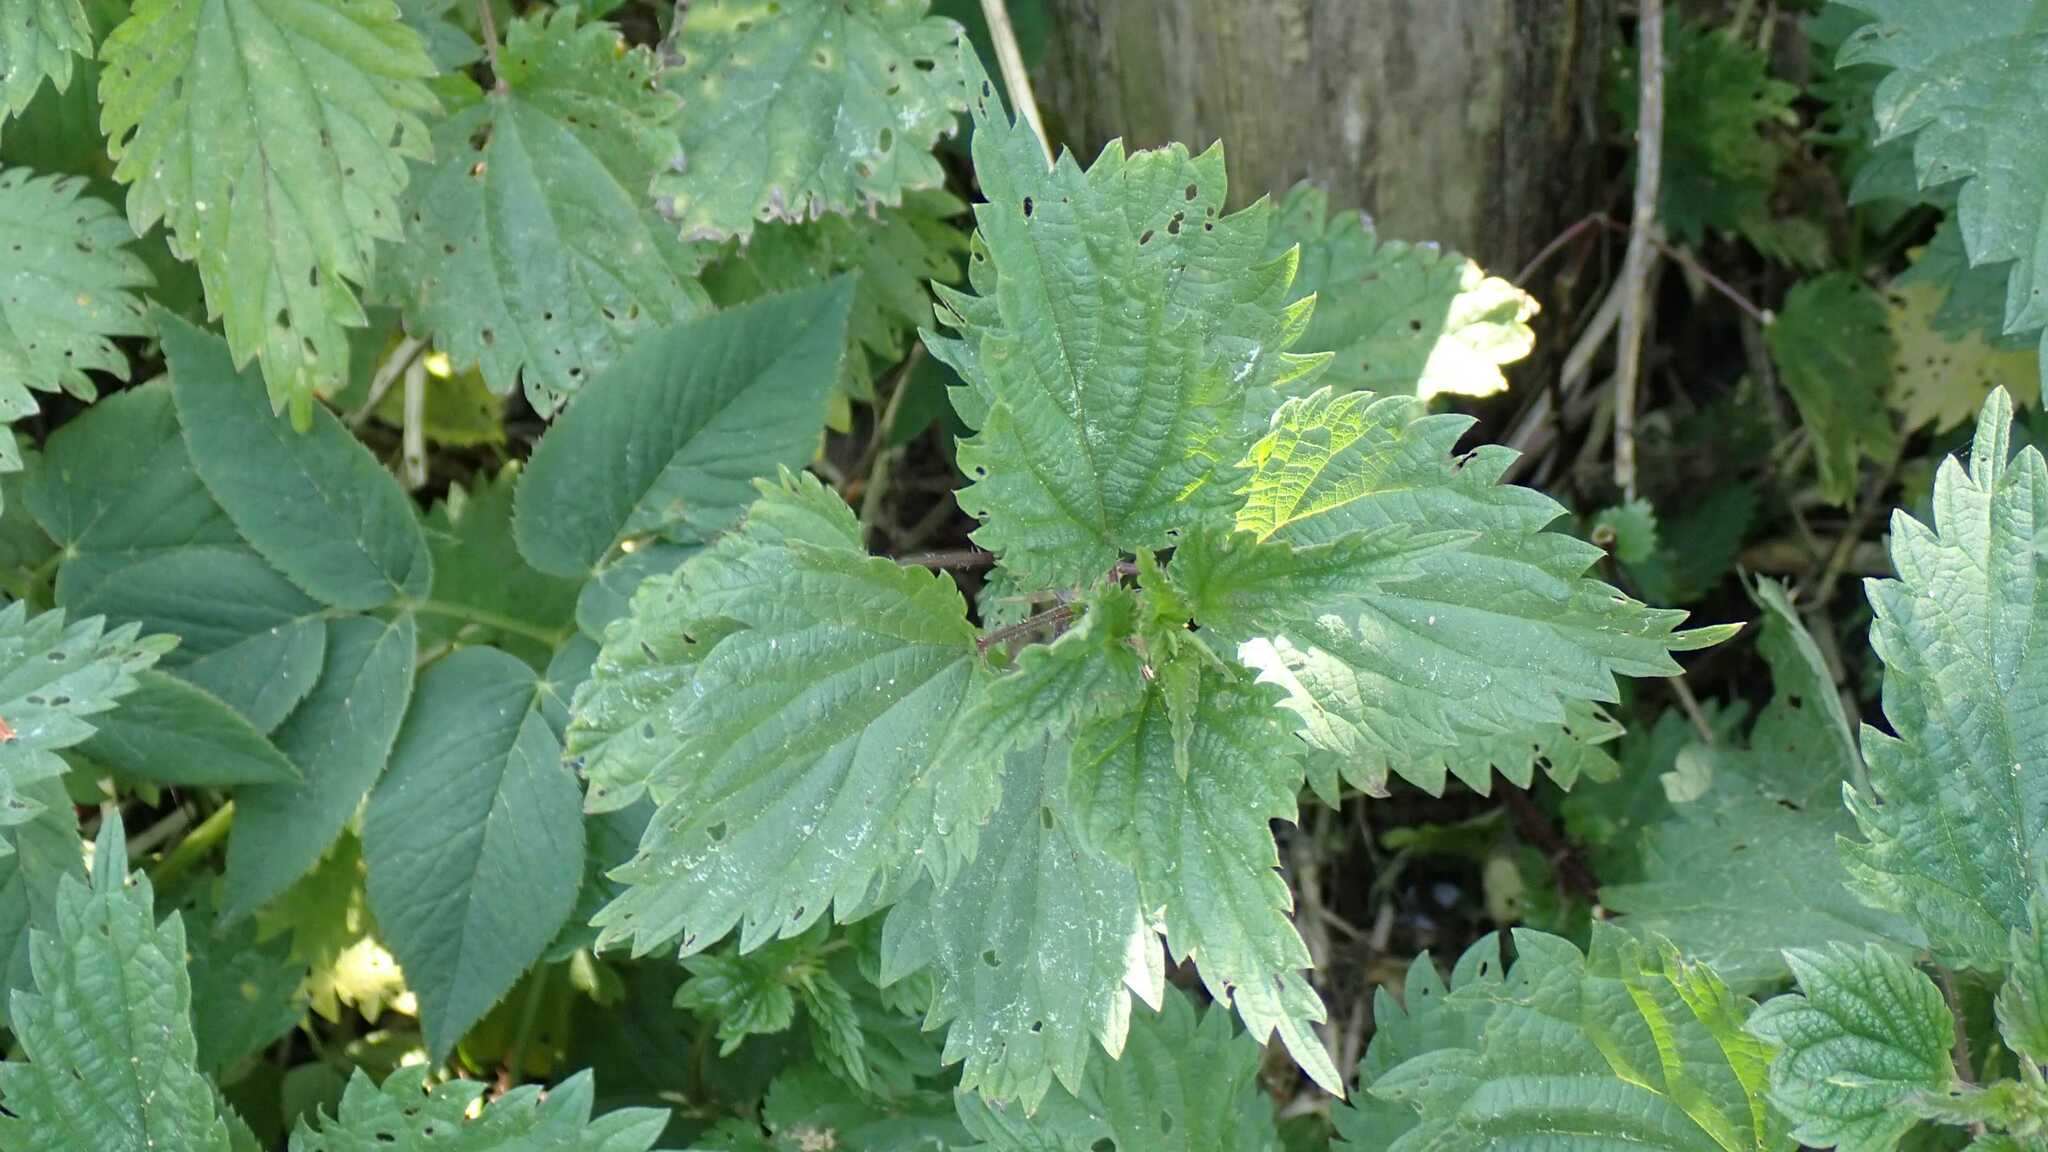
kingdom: Plantae
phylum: Tracheophyta
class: Magnoliopsida
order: Rosales
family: Urticaceae
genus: Urtica
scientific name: Urtica dioica
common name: Common nettle
